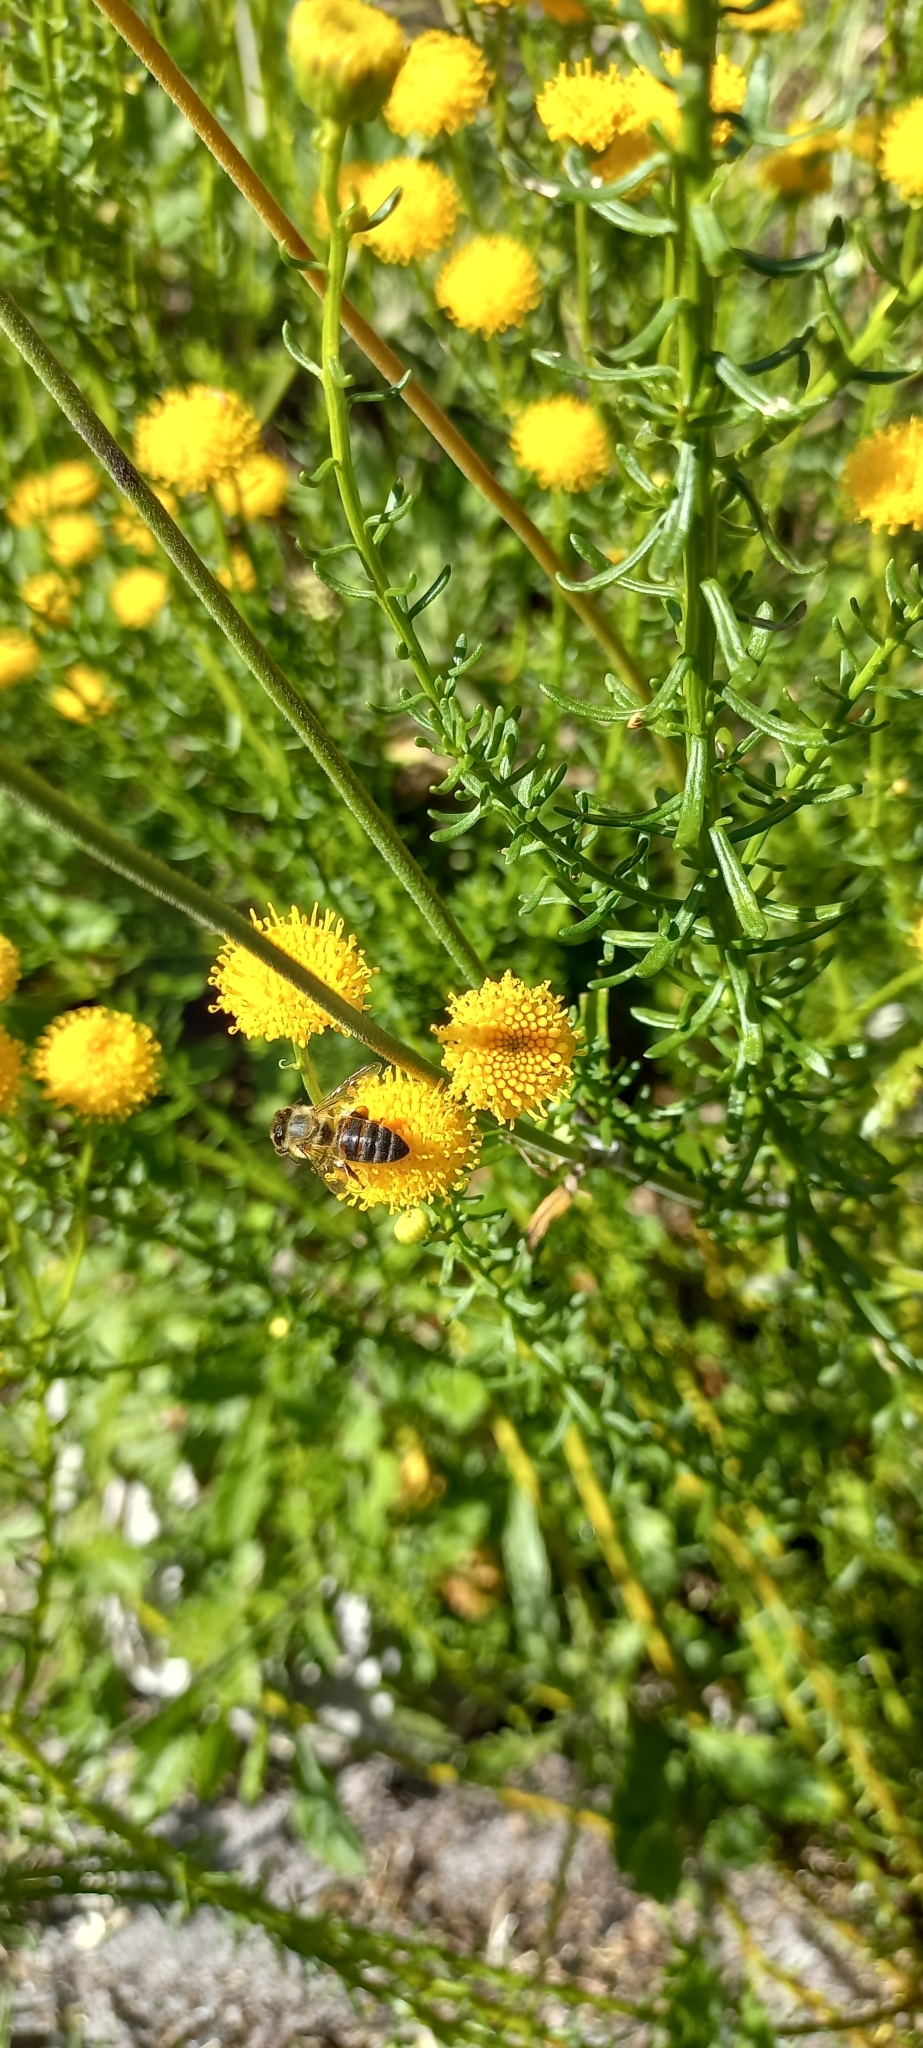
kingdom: Animalia
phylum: Arthropoda
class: Insecta
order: Hymenoptera
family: Apidae
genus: Apis
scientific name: Apis mellifera
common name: Honey bee
